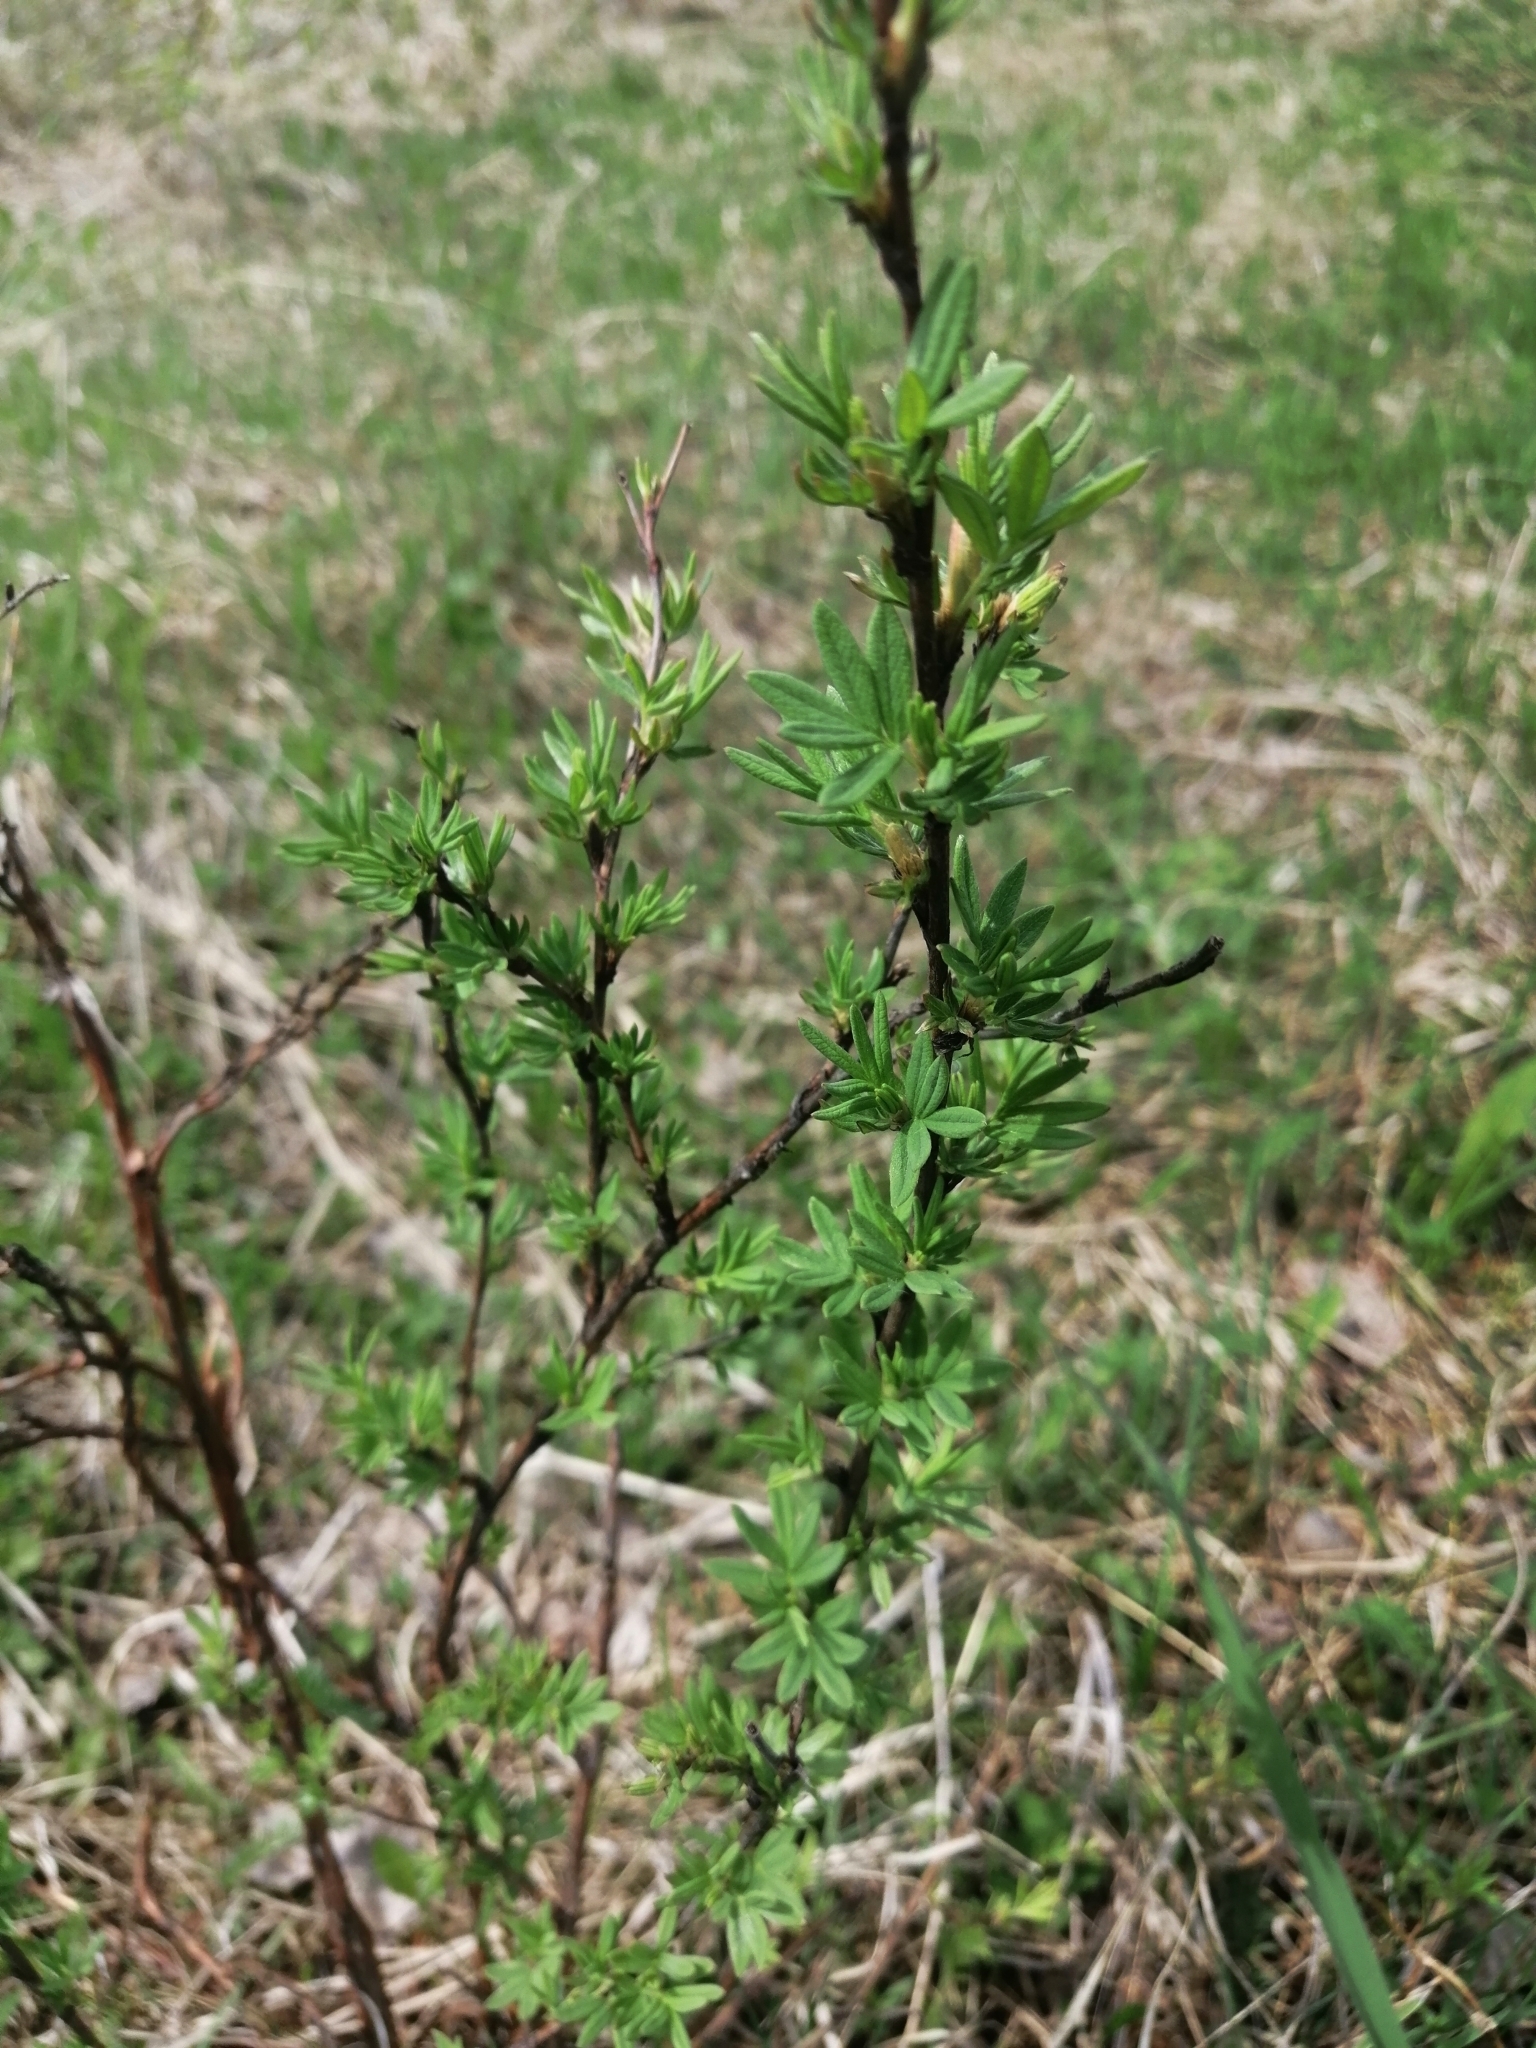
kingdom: Plantae
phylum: Tracheophyta
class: Magnoliopsida
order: Rosales
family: Rosaceae
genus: Dasiphora
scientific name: Dasiphora fruticosa
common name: Shrubby cinquefoil
